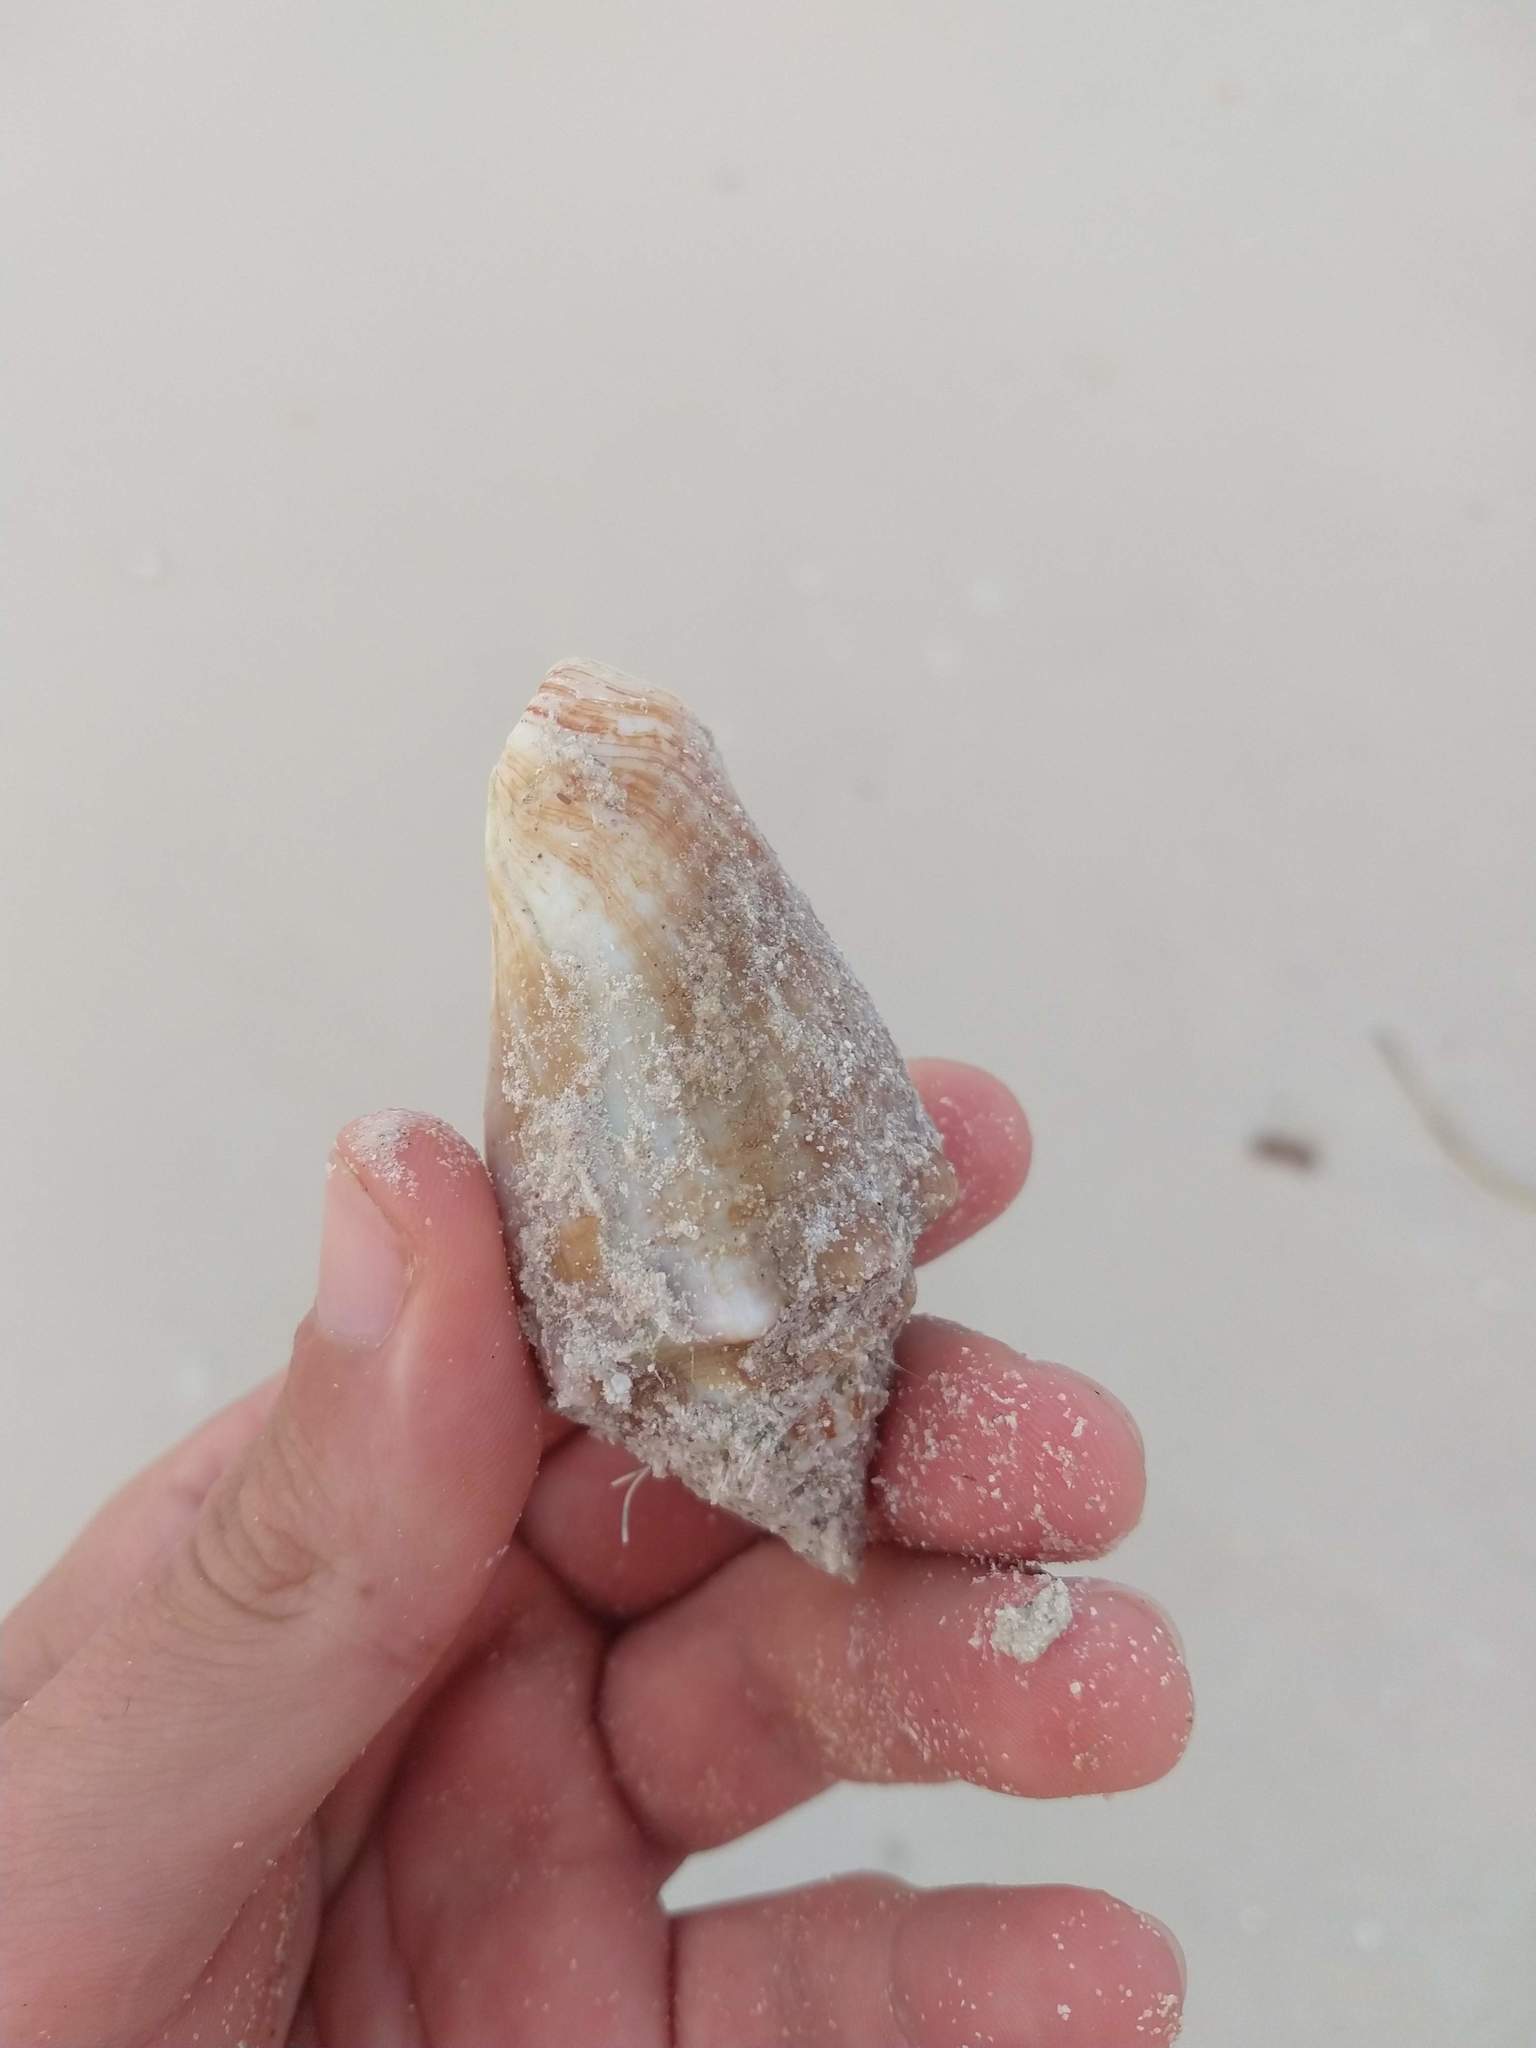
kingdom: Animalia
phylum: Mollusca
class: Gastropoda
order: Littorinimorpha
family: Strombidae
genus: Macrostrombus
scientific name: Macrostrombus costatus
